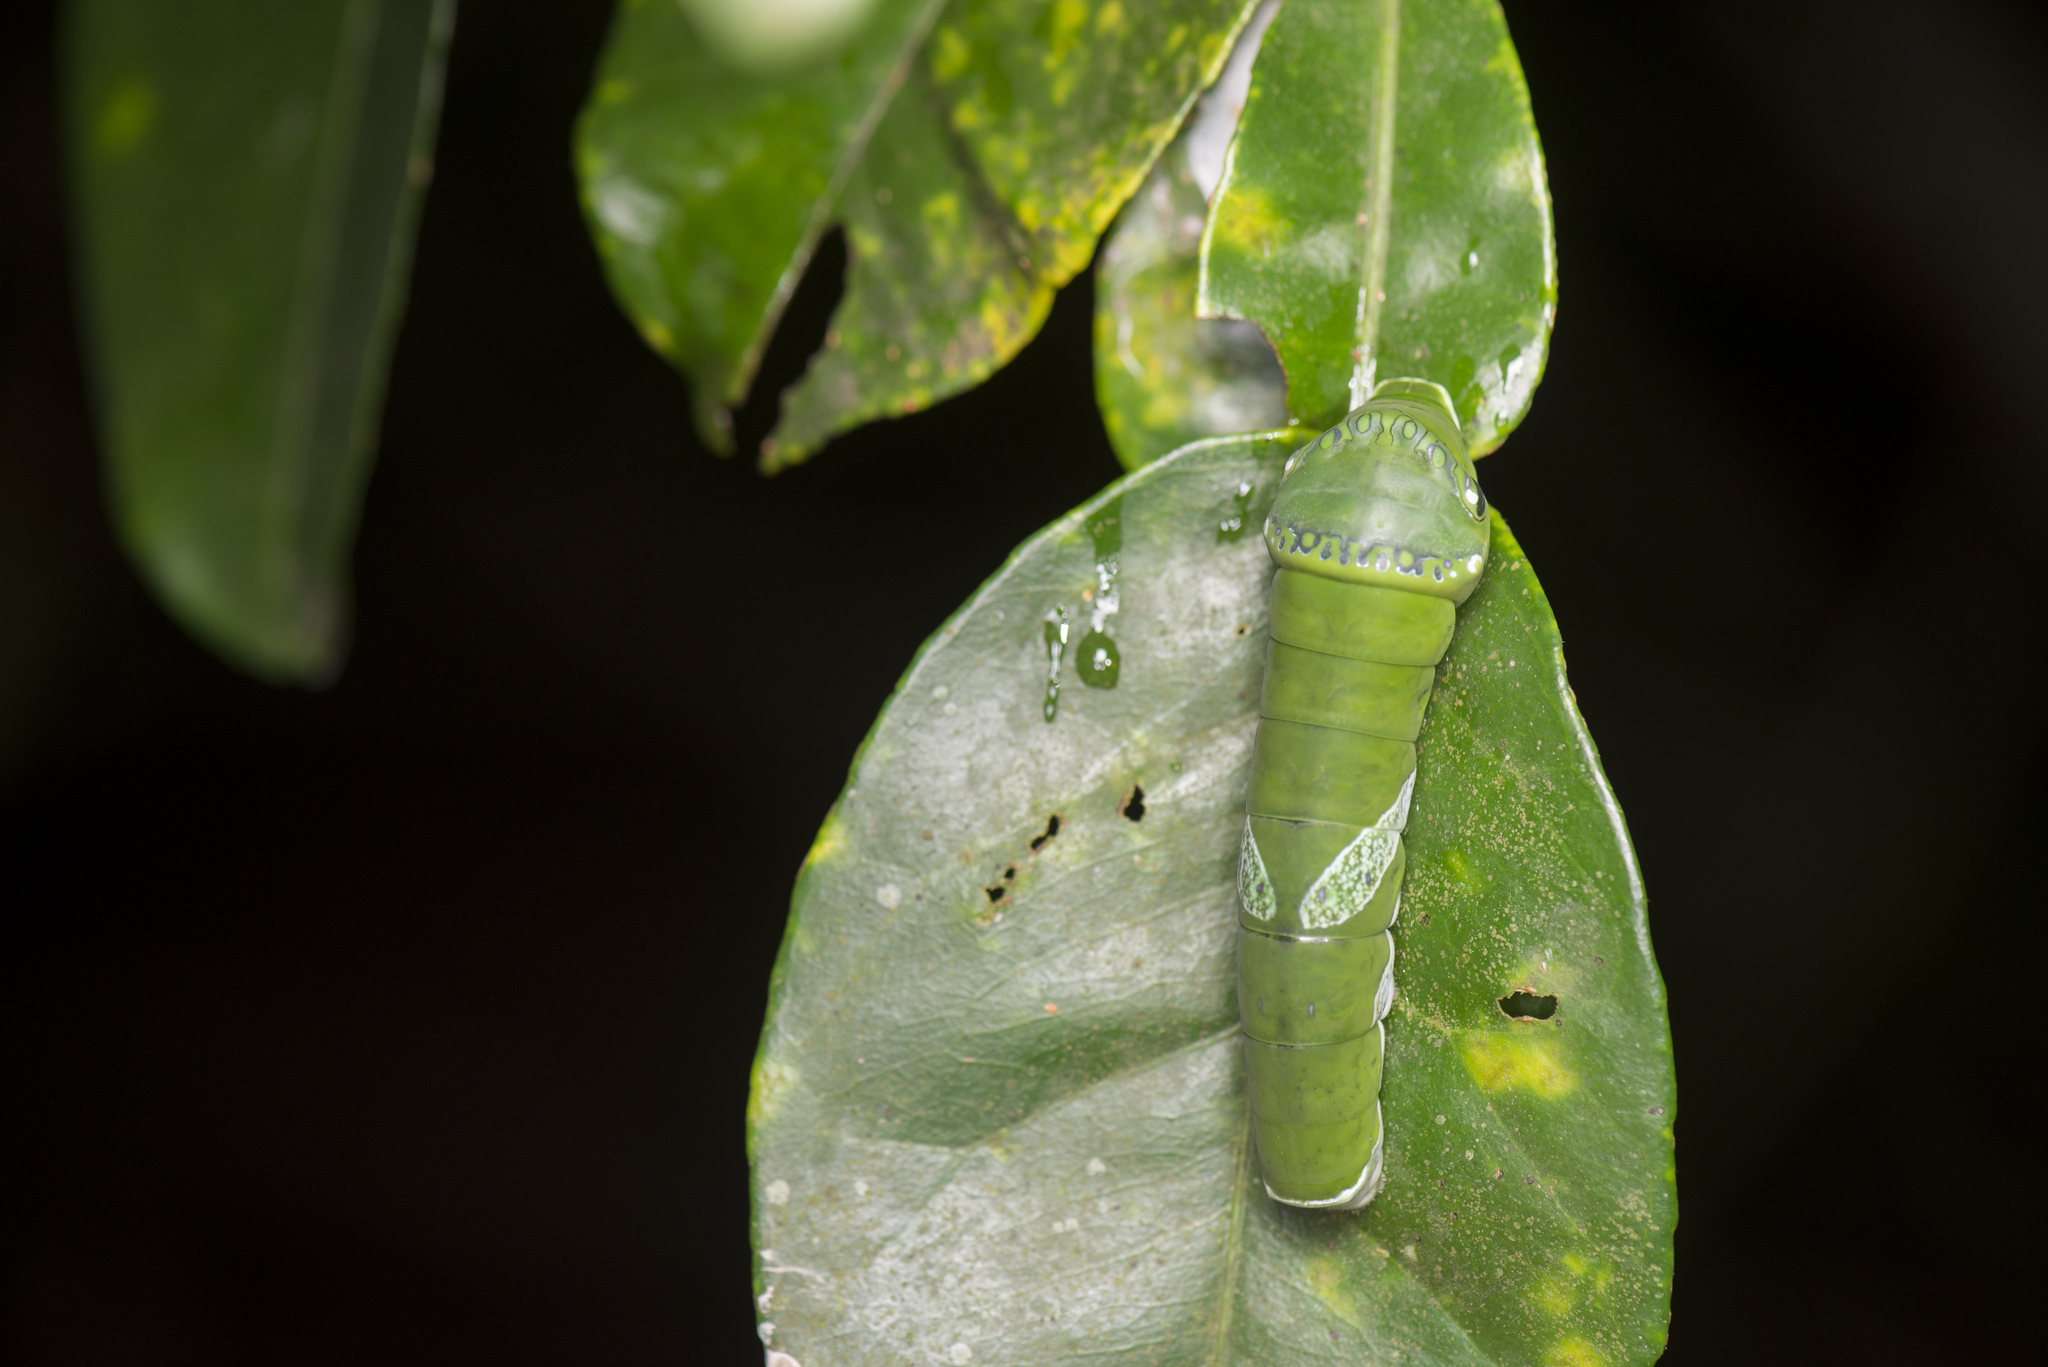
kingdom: Animalia
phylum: Arthropoda
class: Insecta
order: Lepidoptera
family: Papilionidae
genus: Papilio
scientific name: Papilio memnon
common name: Great mormon
